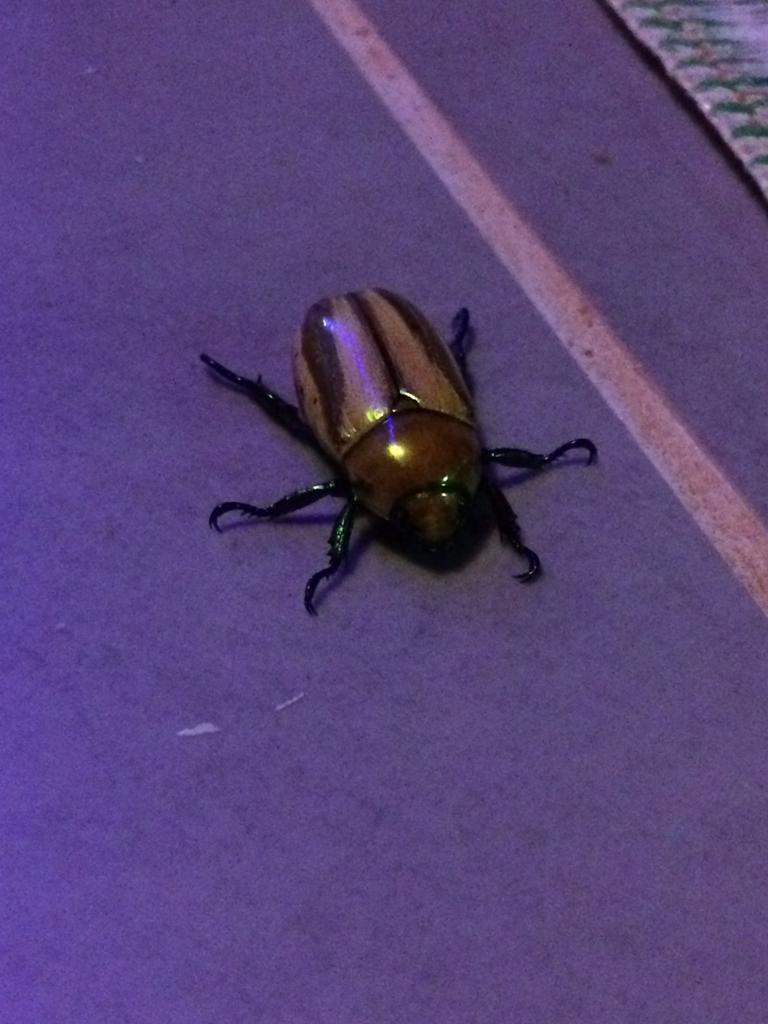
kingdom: Animalia
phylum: Arthropoda
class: Insecta
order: Coleoptera
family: Scarabaeidae
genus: Pelidnota
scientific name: Pelidnota testaceovirens
